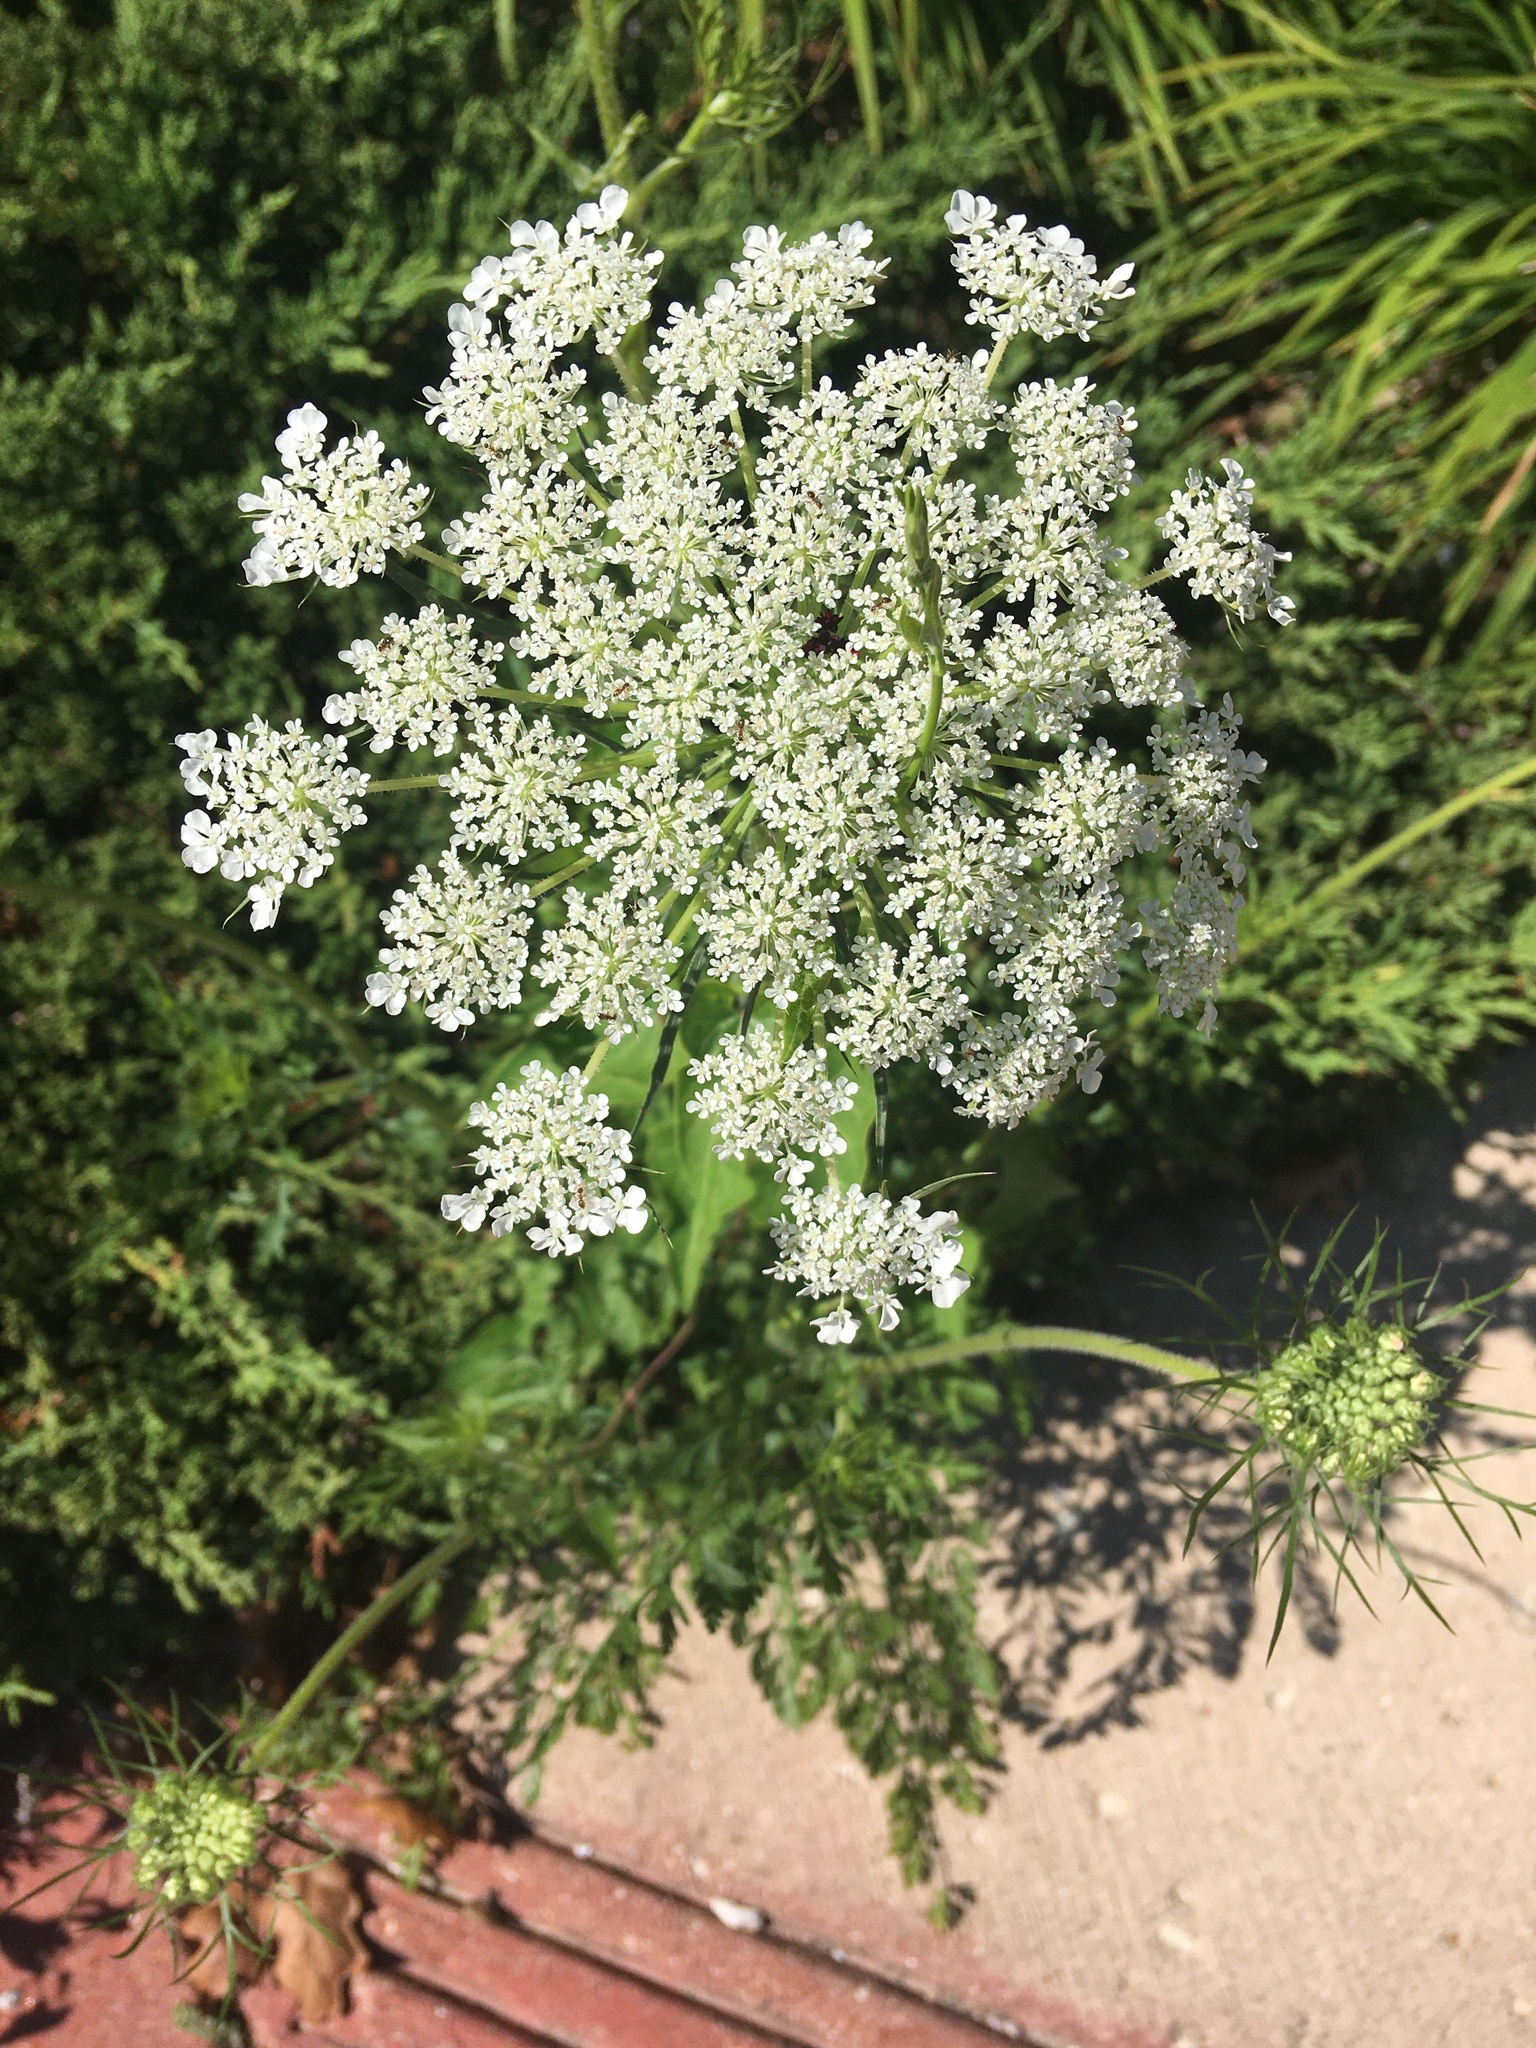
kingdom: Plantae
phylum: Tracheophyta
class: Magnoliopsida
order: Apiales
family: Apiaceae
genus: Daucus
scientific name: Daucus carota
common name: Wild carrot
